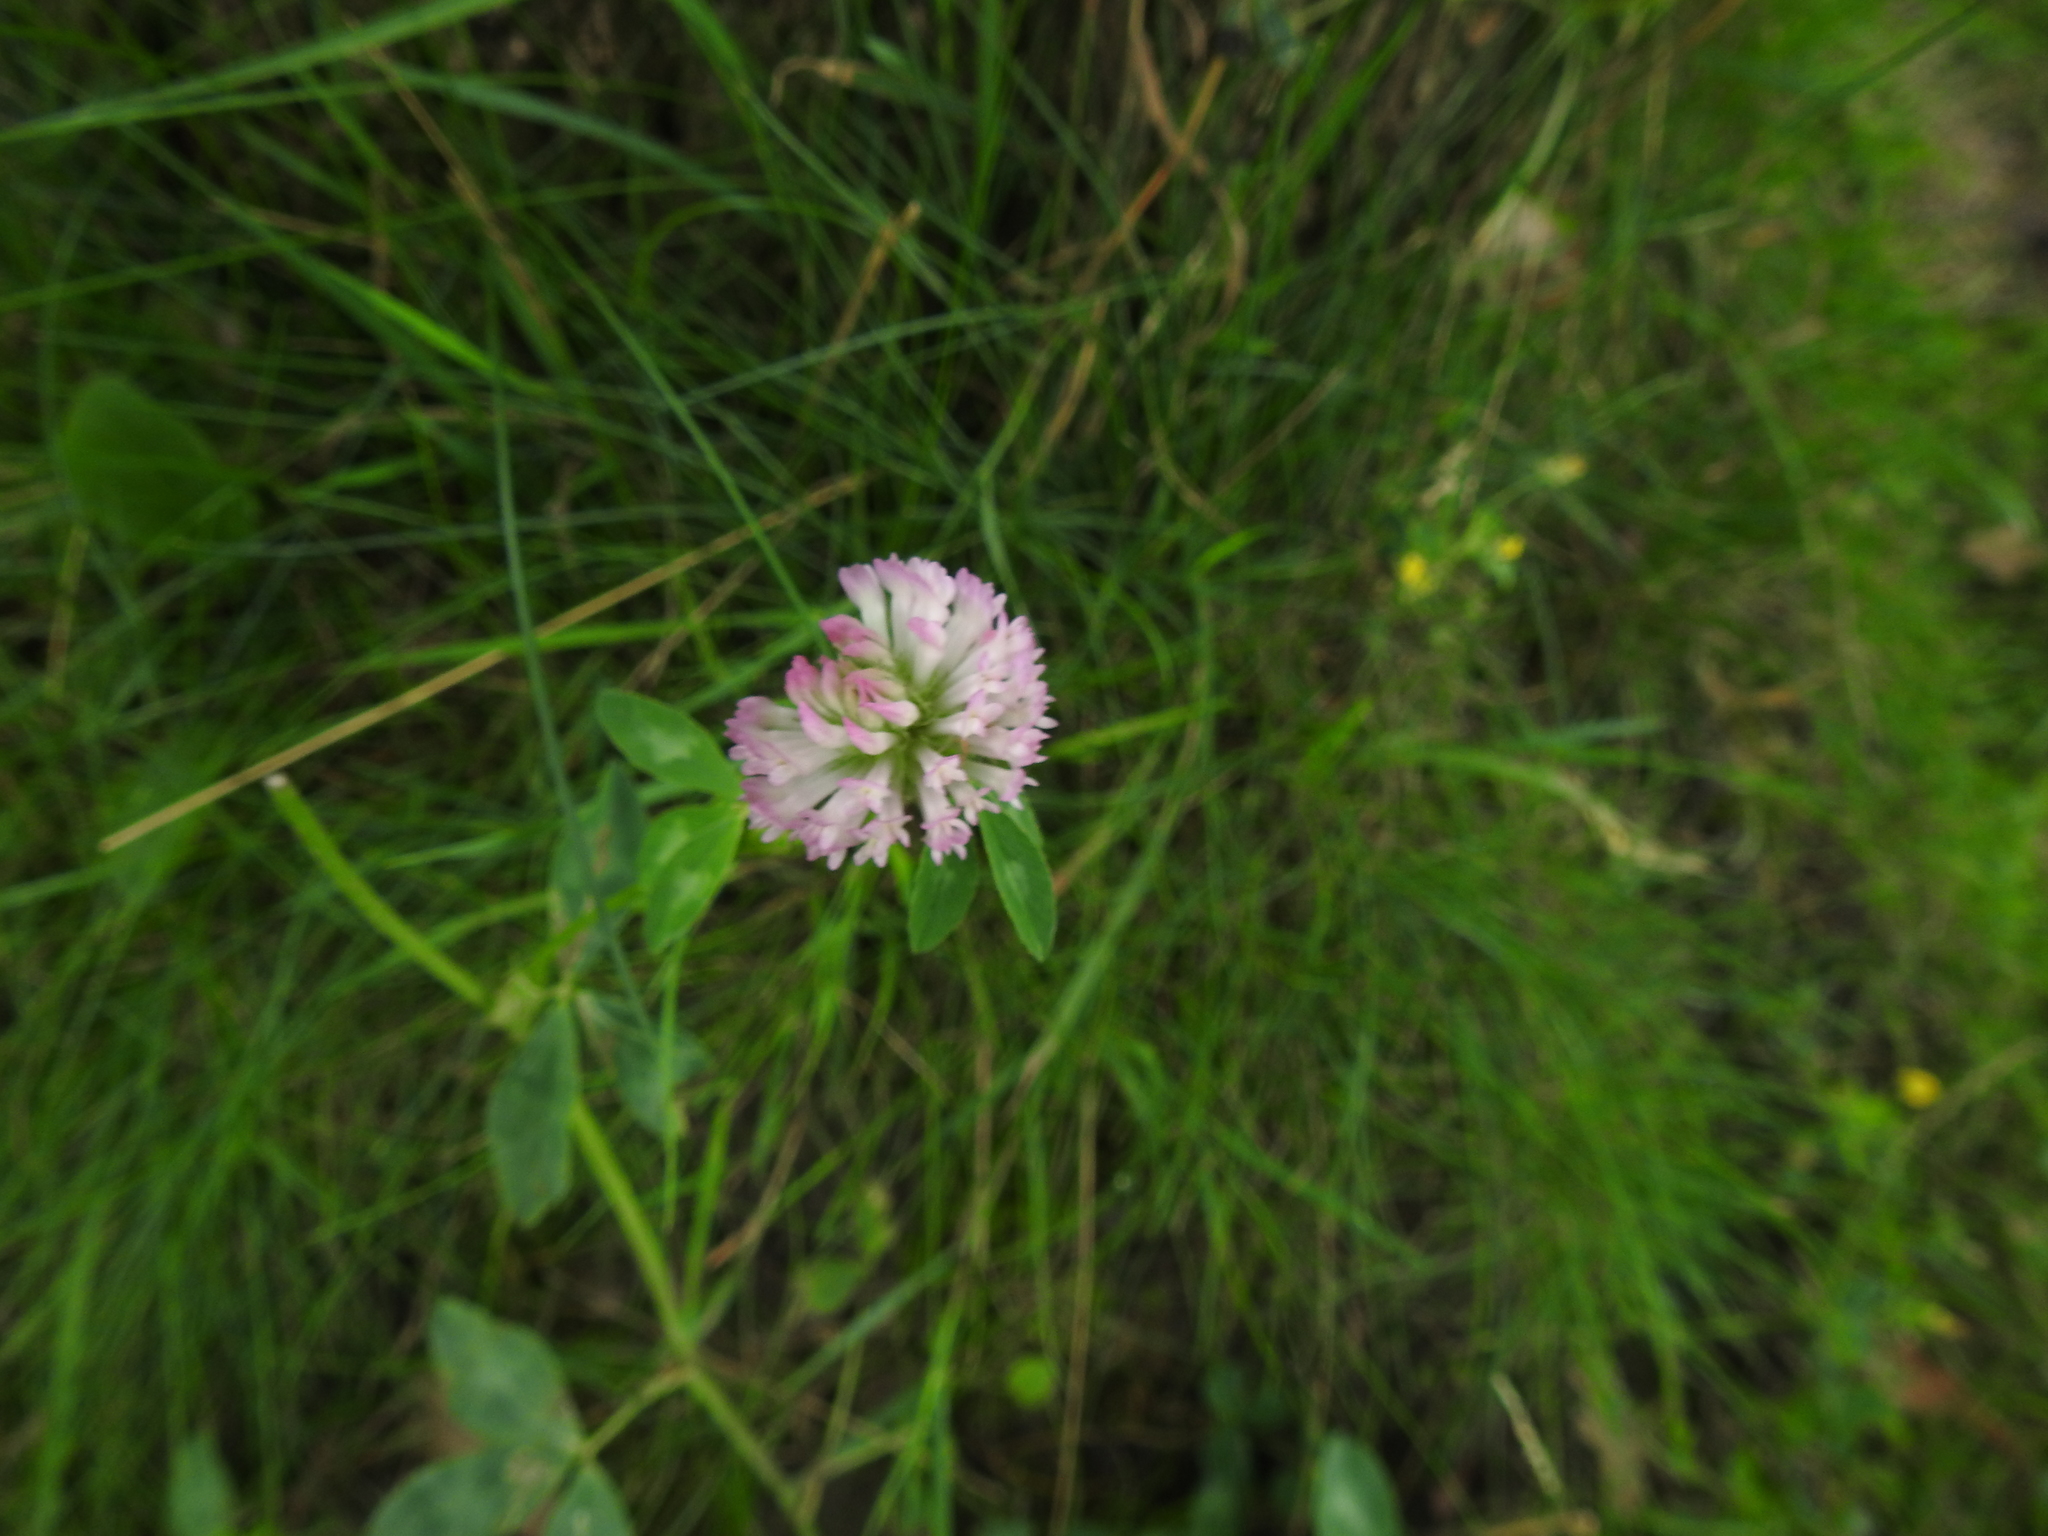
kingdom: Plantae
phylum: Tracheophyta
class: Magnoliopsida
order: Fabales
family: Fabaceae
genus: Trifolium
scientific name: Trifolium pratense
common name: Red clover
